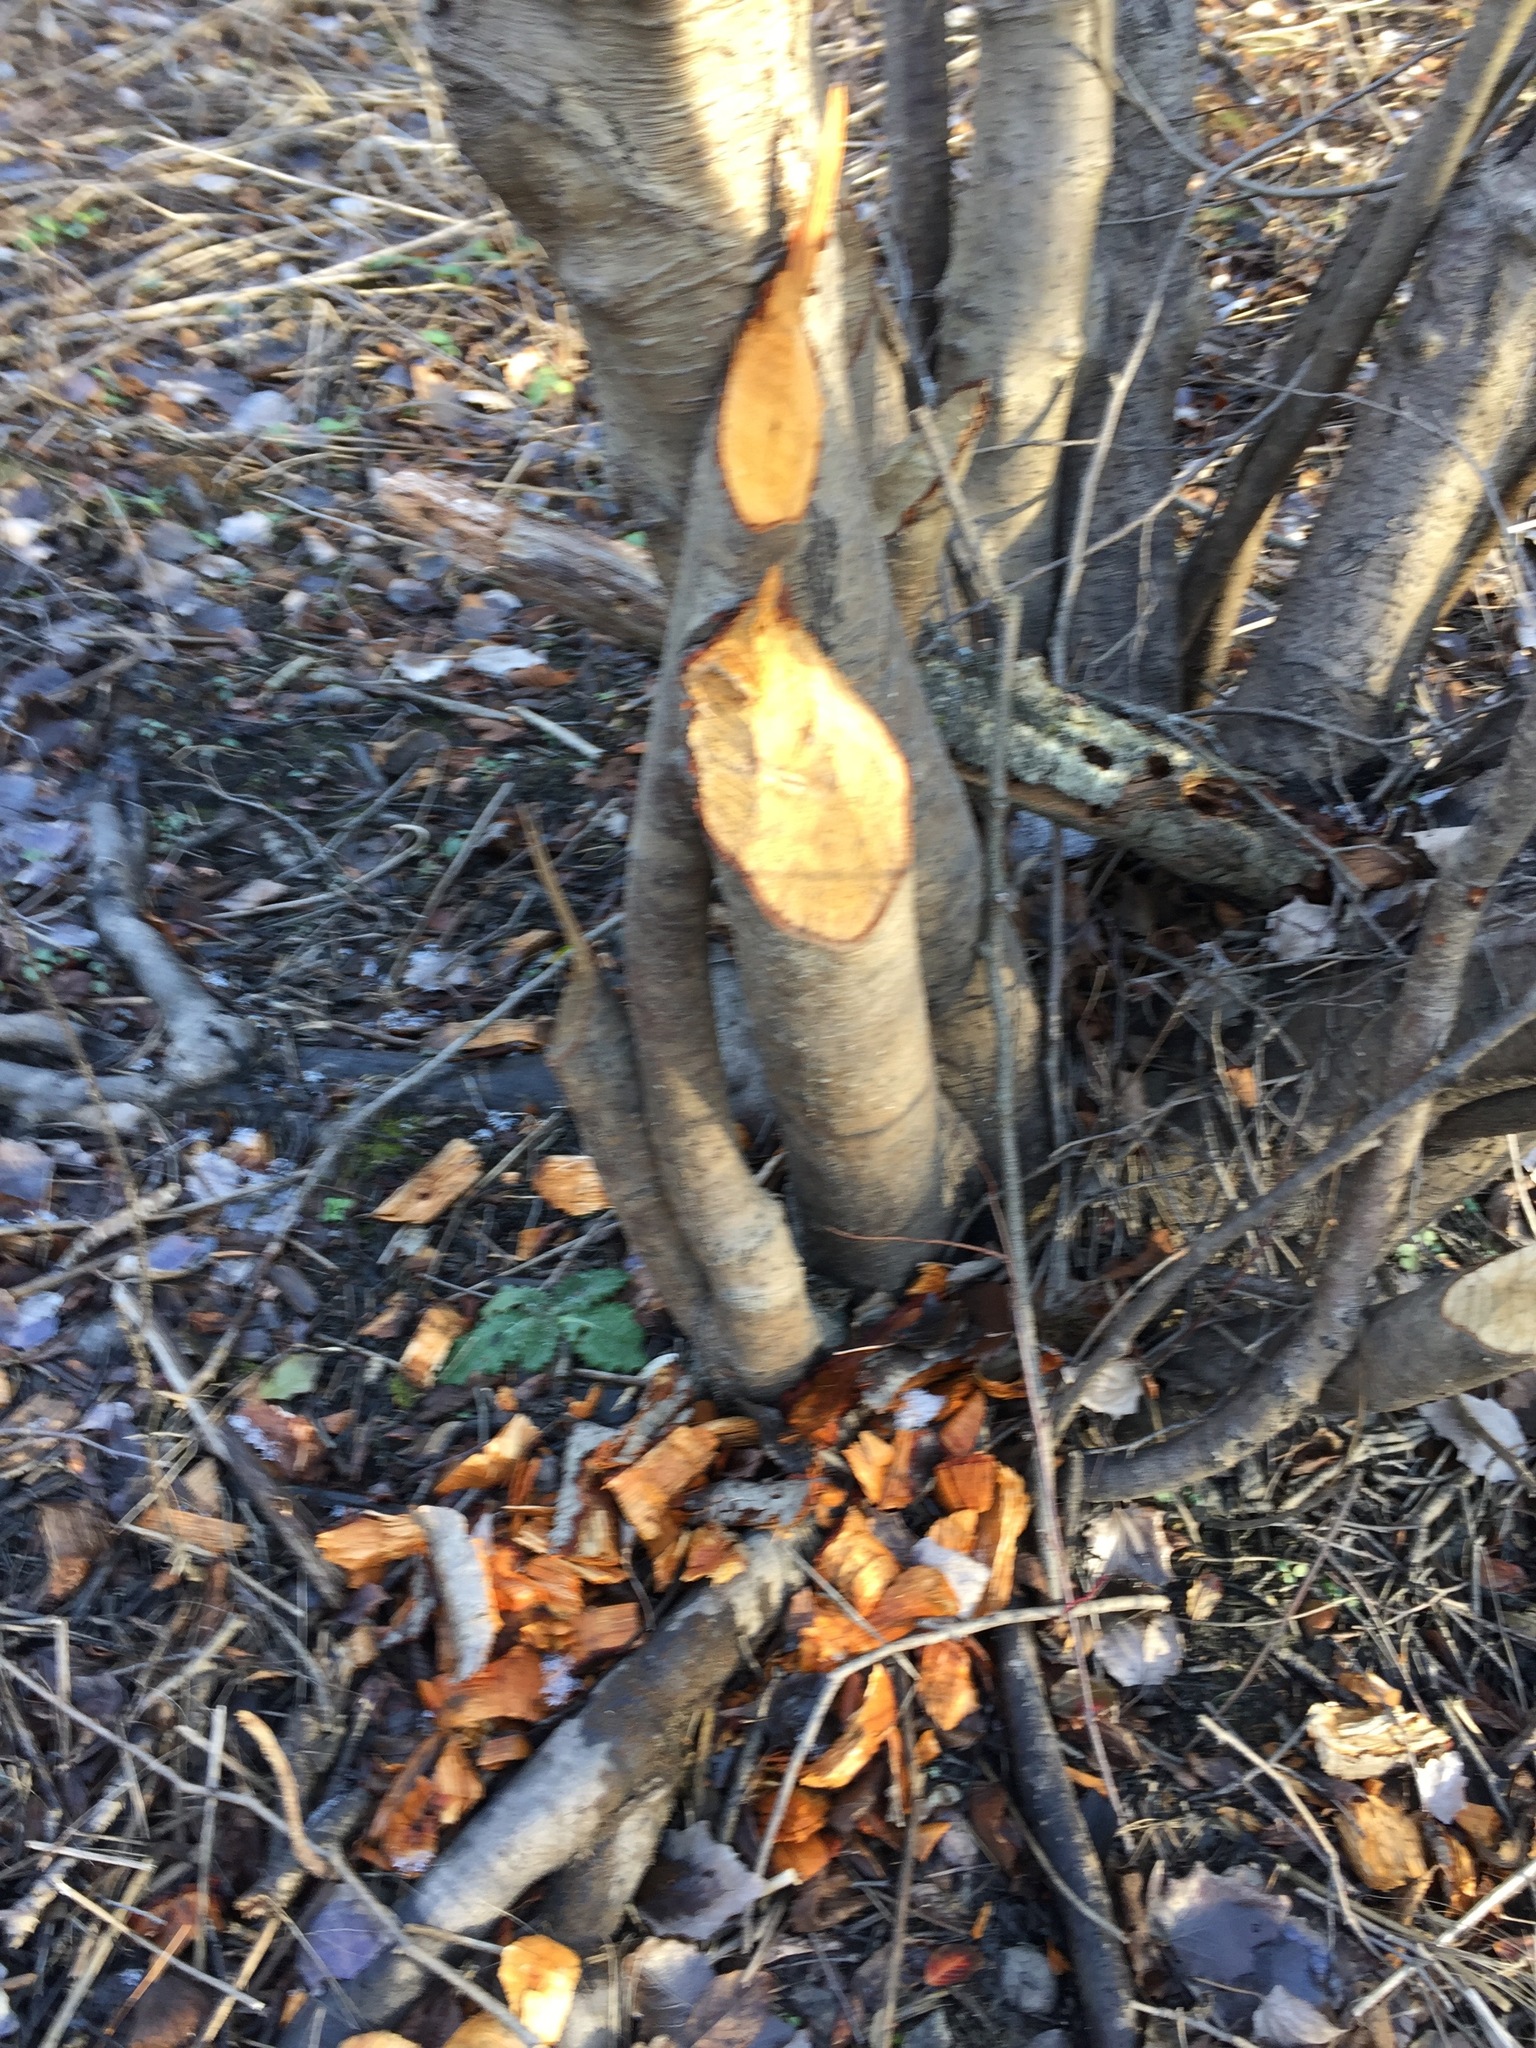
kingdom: Animalia
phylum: Chordata
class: Mammalia
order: Rodentia
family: Castoridae
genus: Castor
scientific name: Castor canadensis
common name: American beaver
